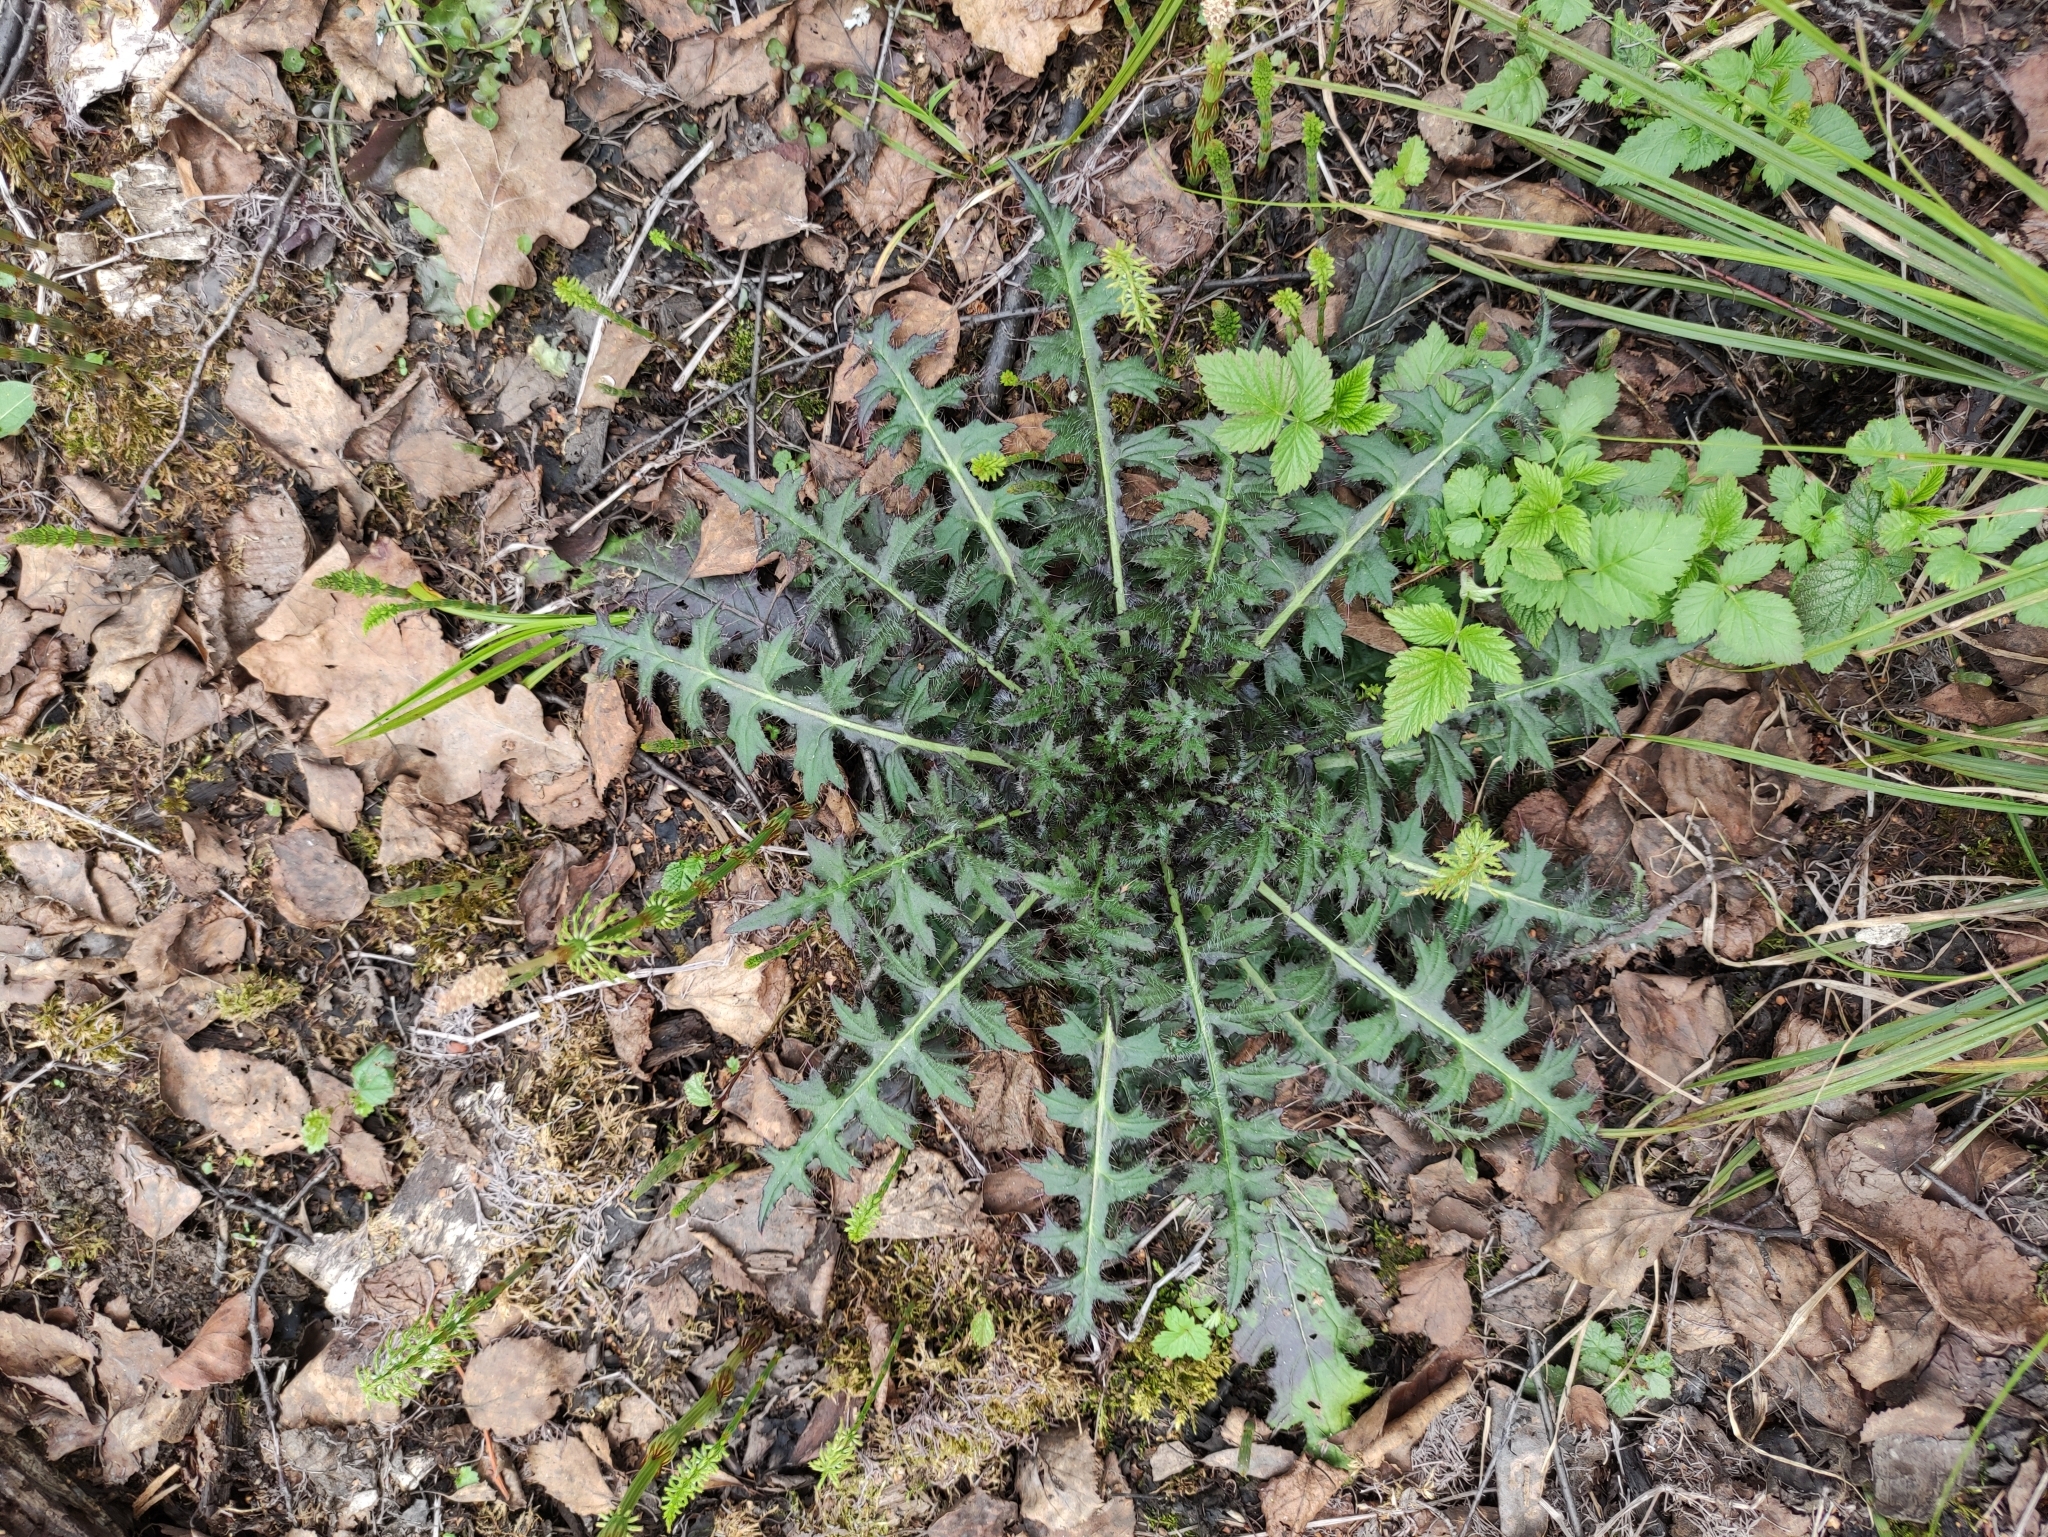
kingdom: Plantae
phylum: Tracheophyta
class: Magnoliopsida
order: Asterales
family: Asteraceae
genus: Cirsium
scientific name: Cirsium palustre
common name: Marsh thistle
